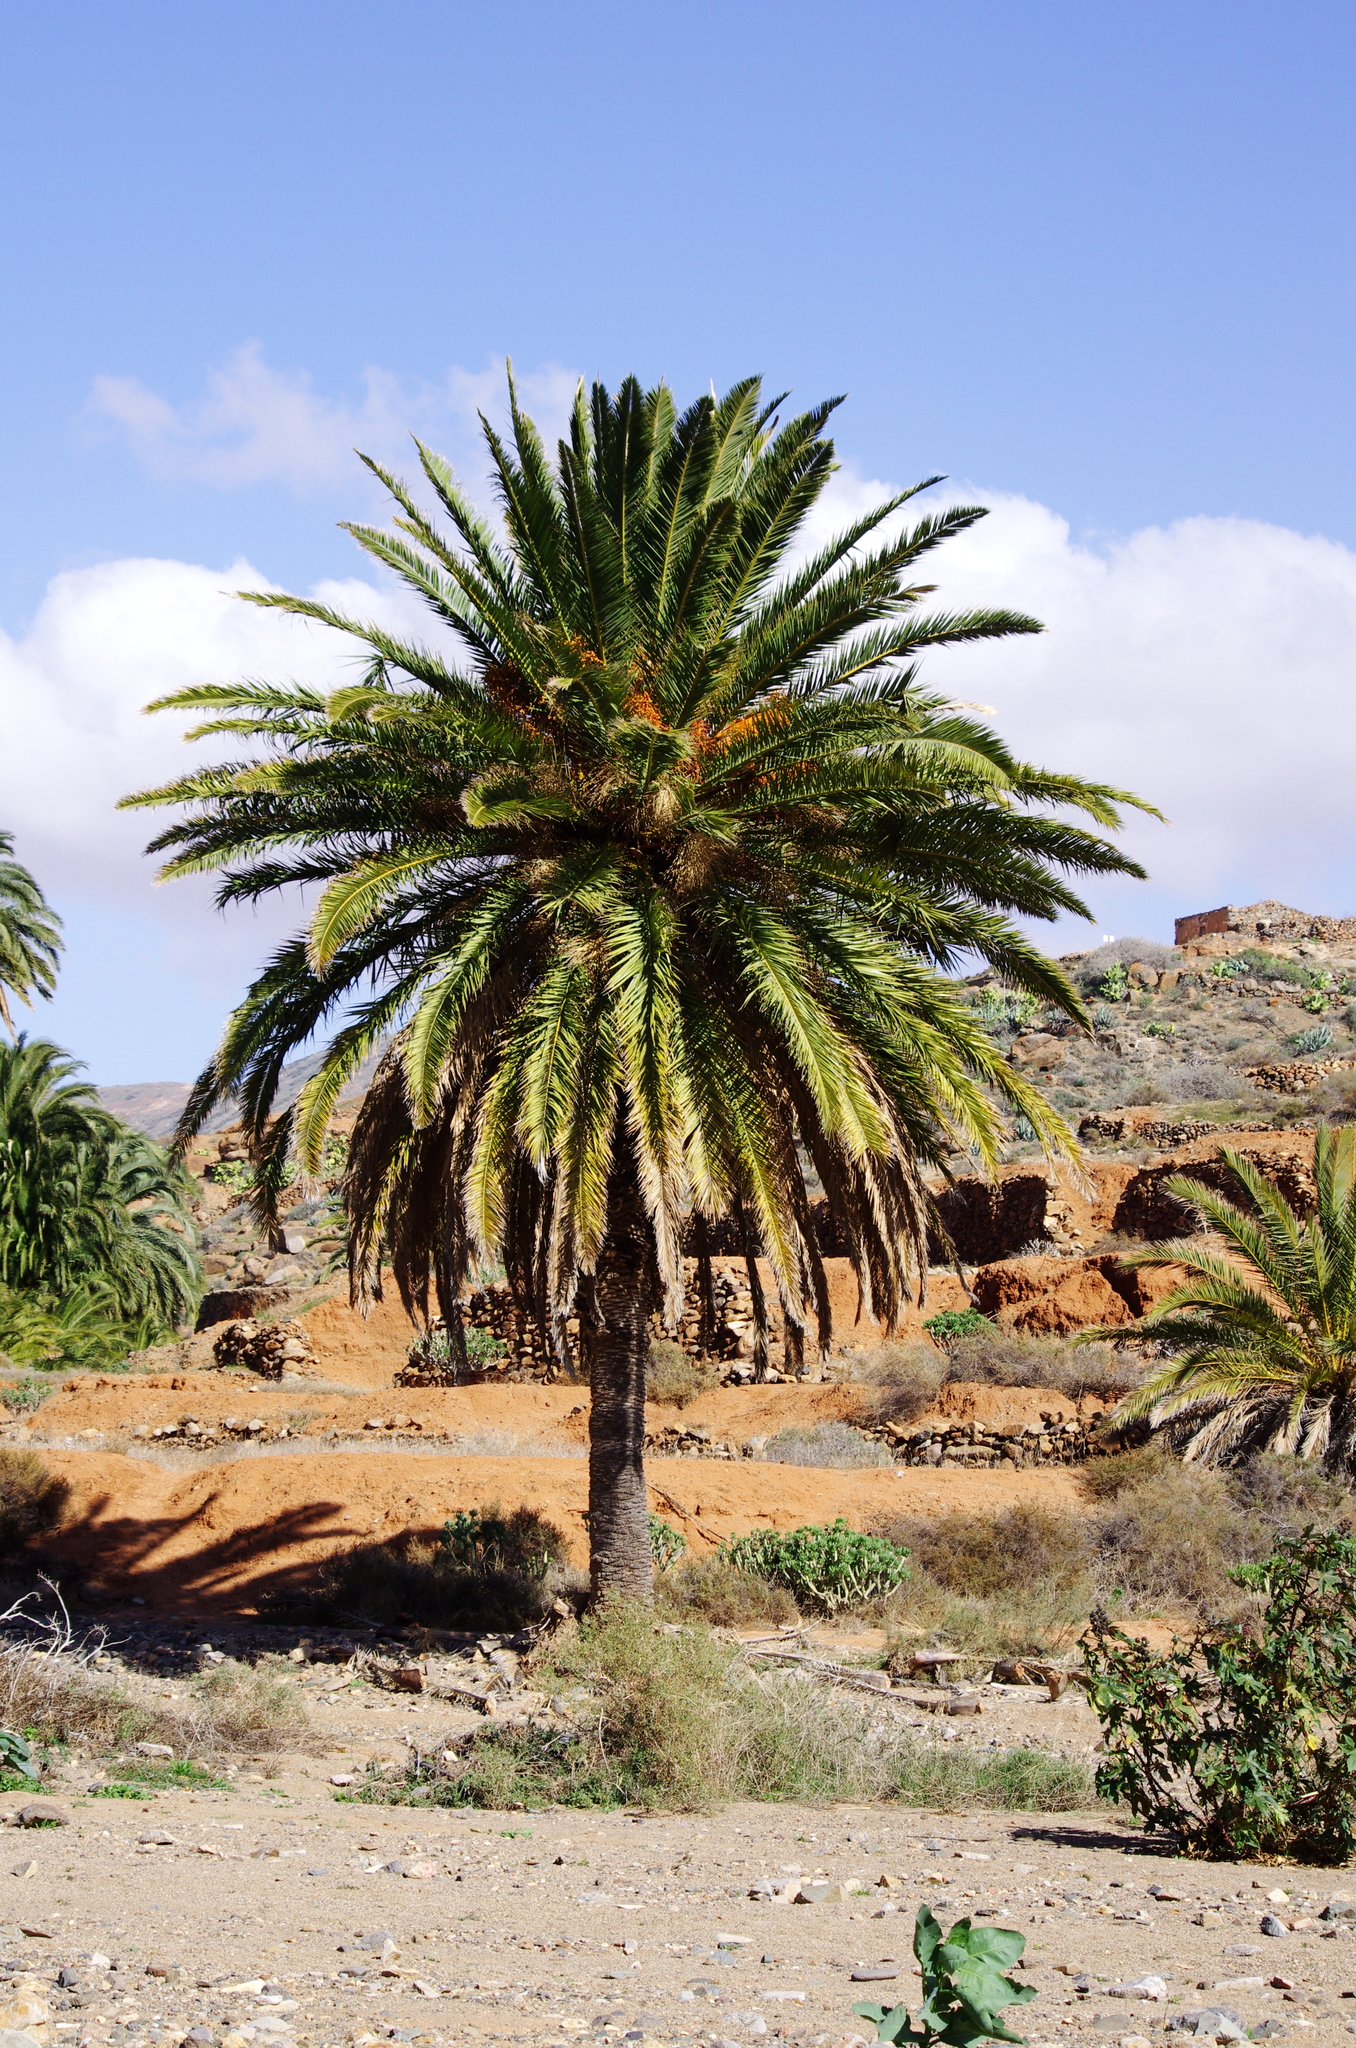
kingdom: Plantae
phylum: Tracheophyta
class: Liliopsida
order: Arecales
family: Arecaceae
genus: Phoenix
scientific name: Phoenix canariensis
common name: Canary island date palm
